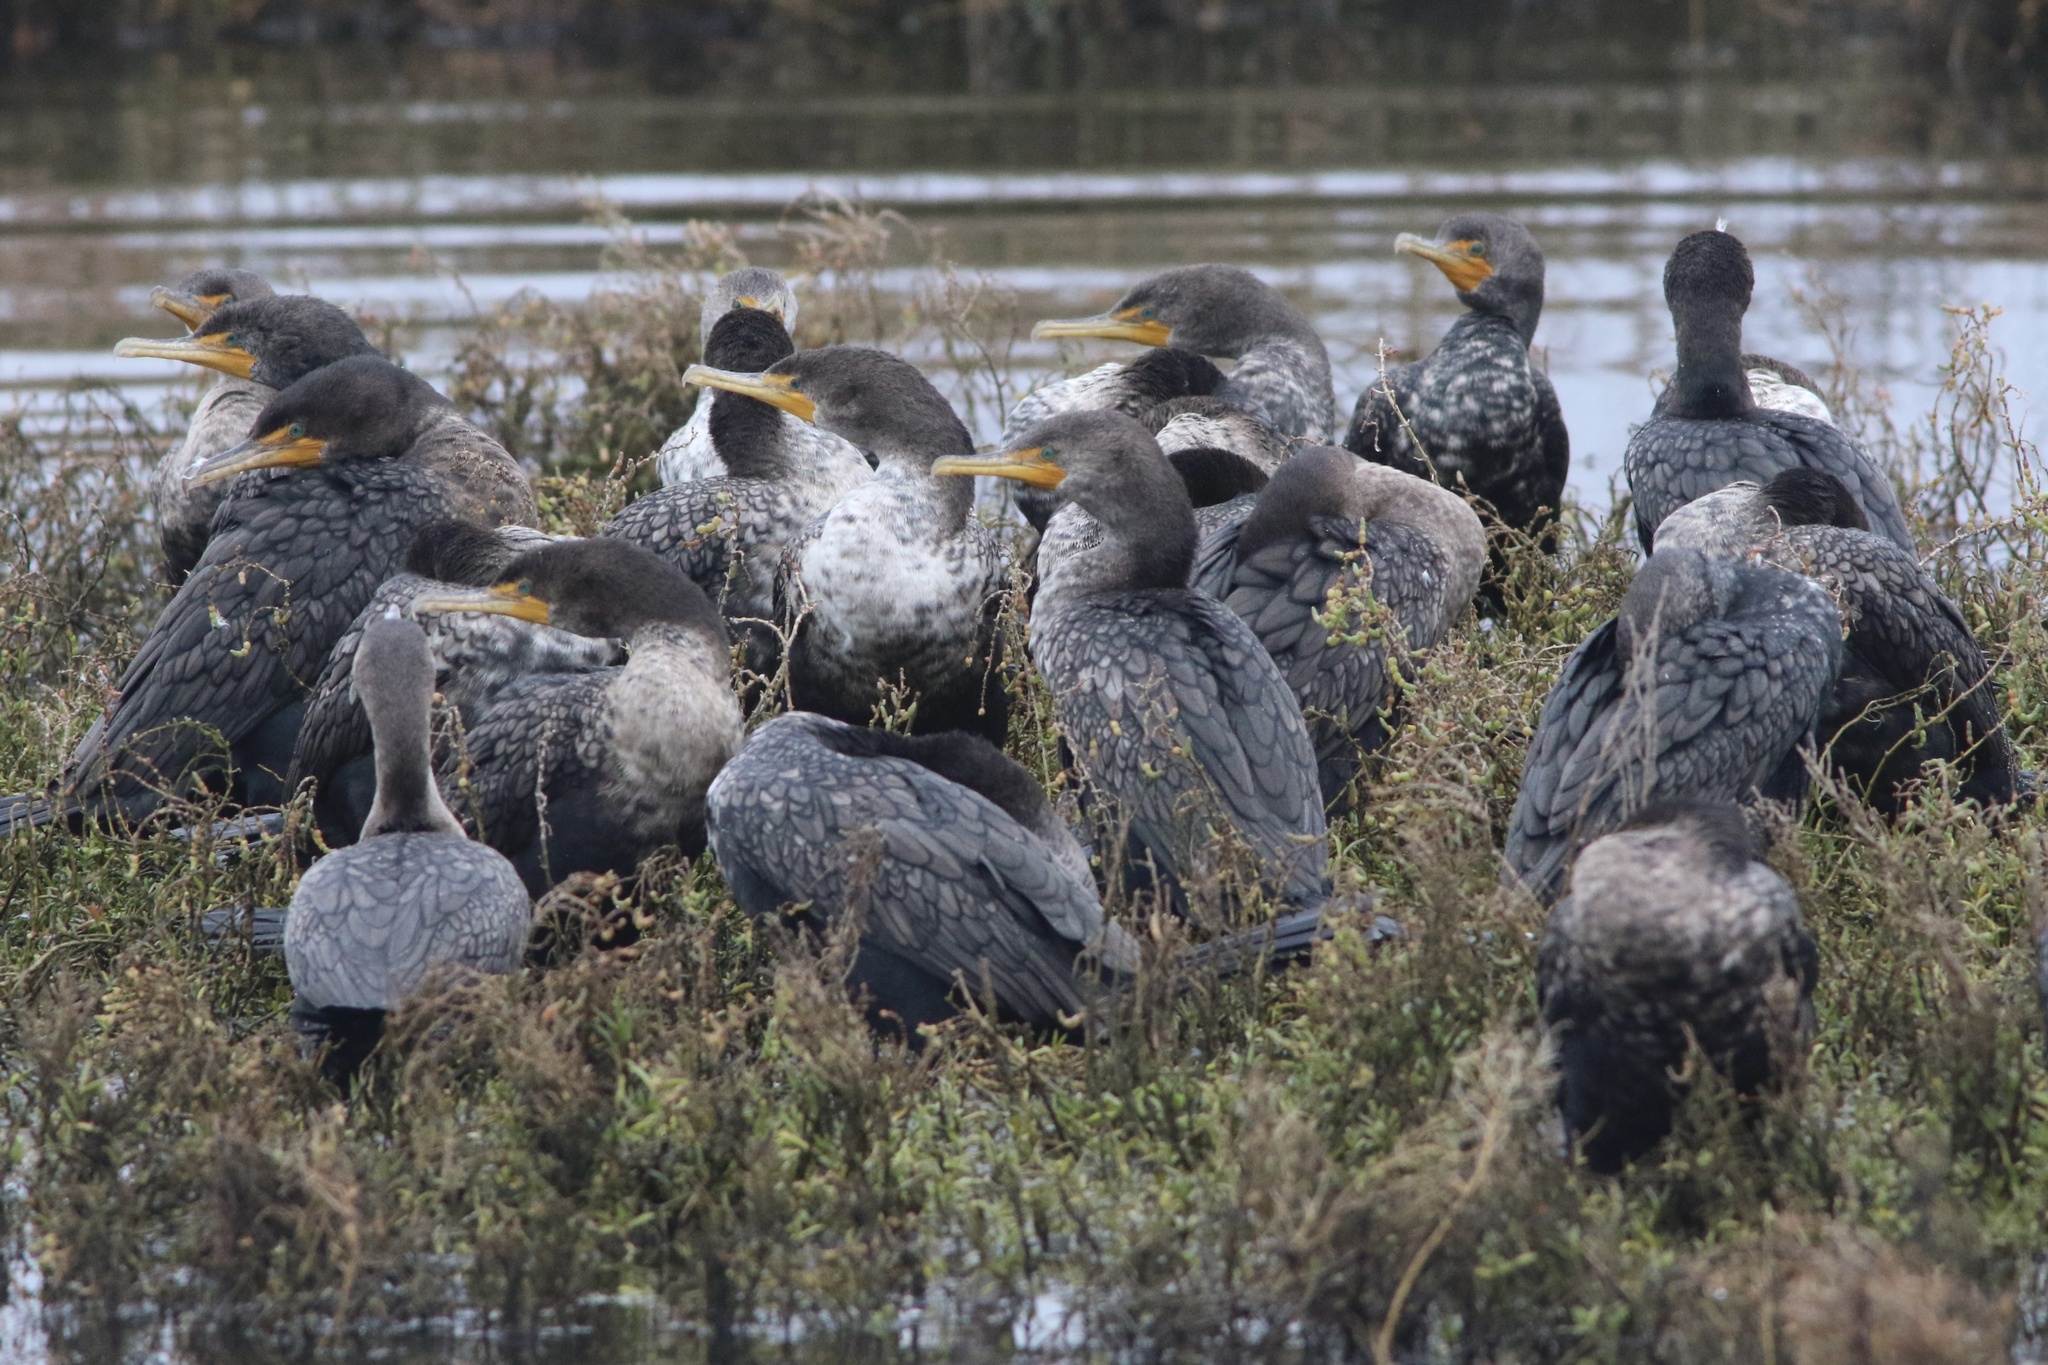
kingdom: Animalia
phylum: Chordata
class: Aves
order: Suliformes
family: Phalacrocoracidae
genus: Phalacrocorax
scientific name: Phalacrocorax auritus
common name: Double-crested cormorant
